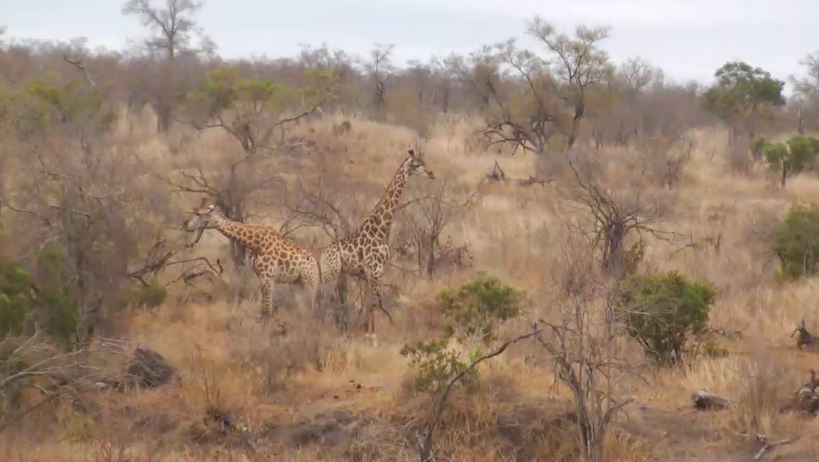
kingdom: Animalia
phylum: Chordata
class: Mammalia
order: Artiodactyla
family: Giraffidae
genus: Giraffa
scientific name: Giraffa giraffa
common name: Southern giraffe
